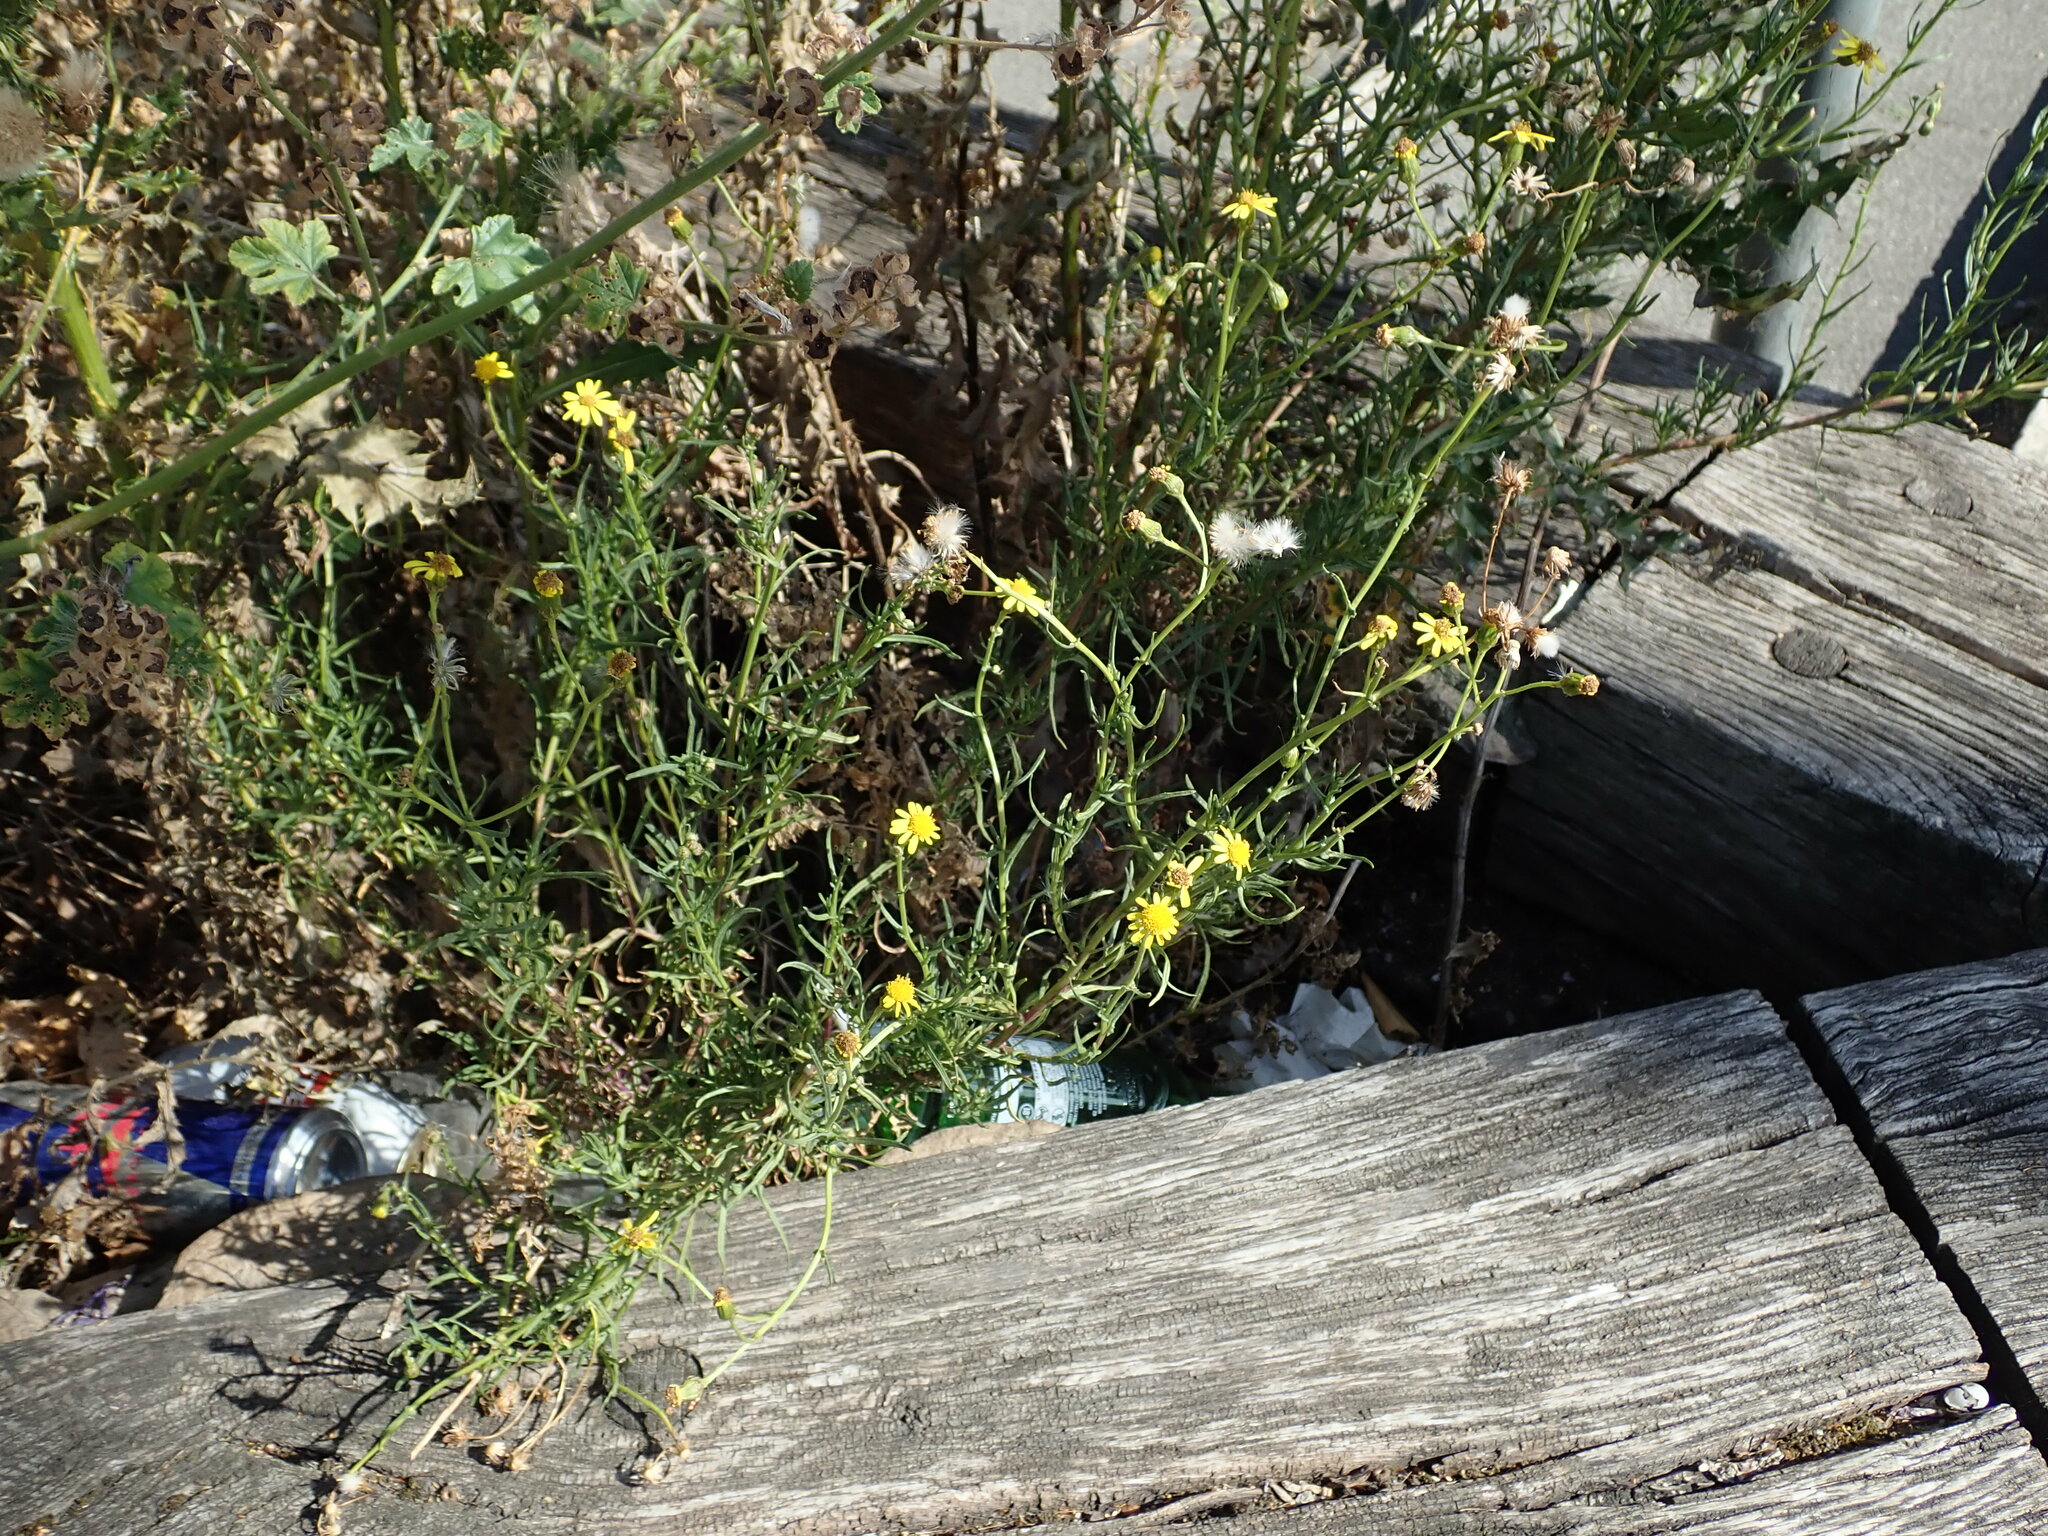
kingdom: Plantae
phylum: Tracheophyta
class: Magnoliopsida
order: Asterales
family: Asteraceae
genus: Senecio
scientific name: Senecio inaequidens
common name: Narrow-leaved ragwort
